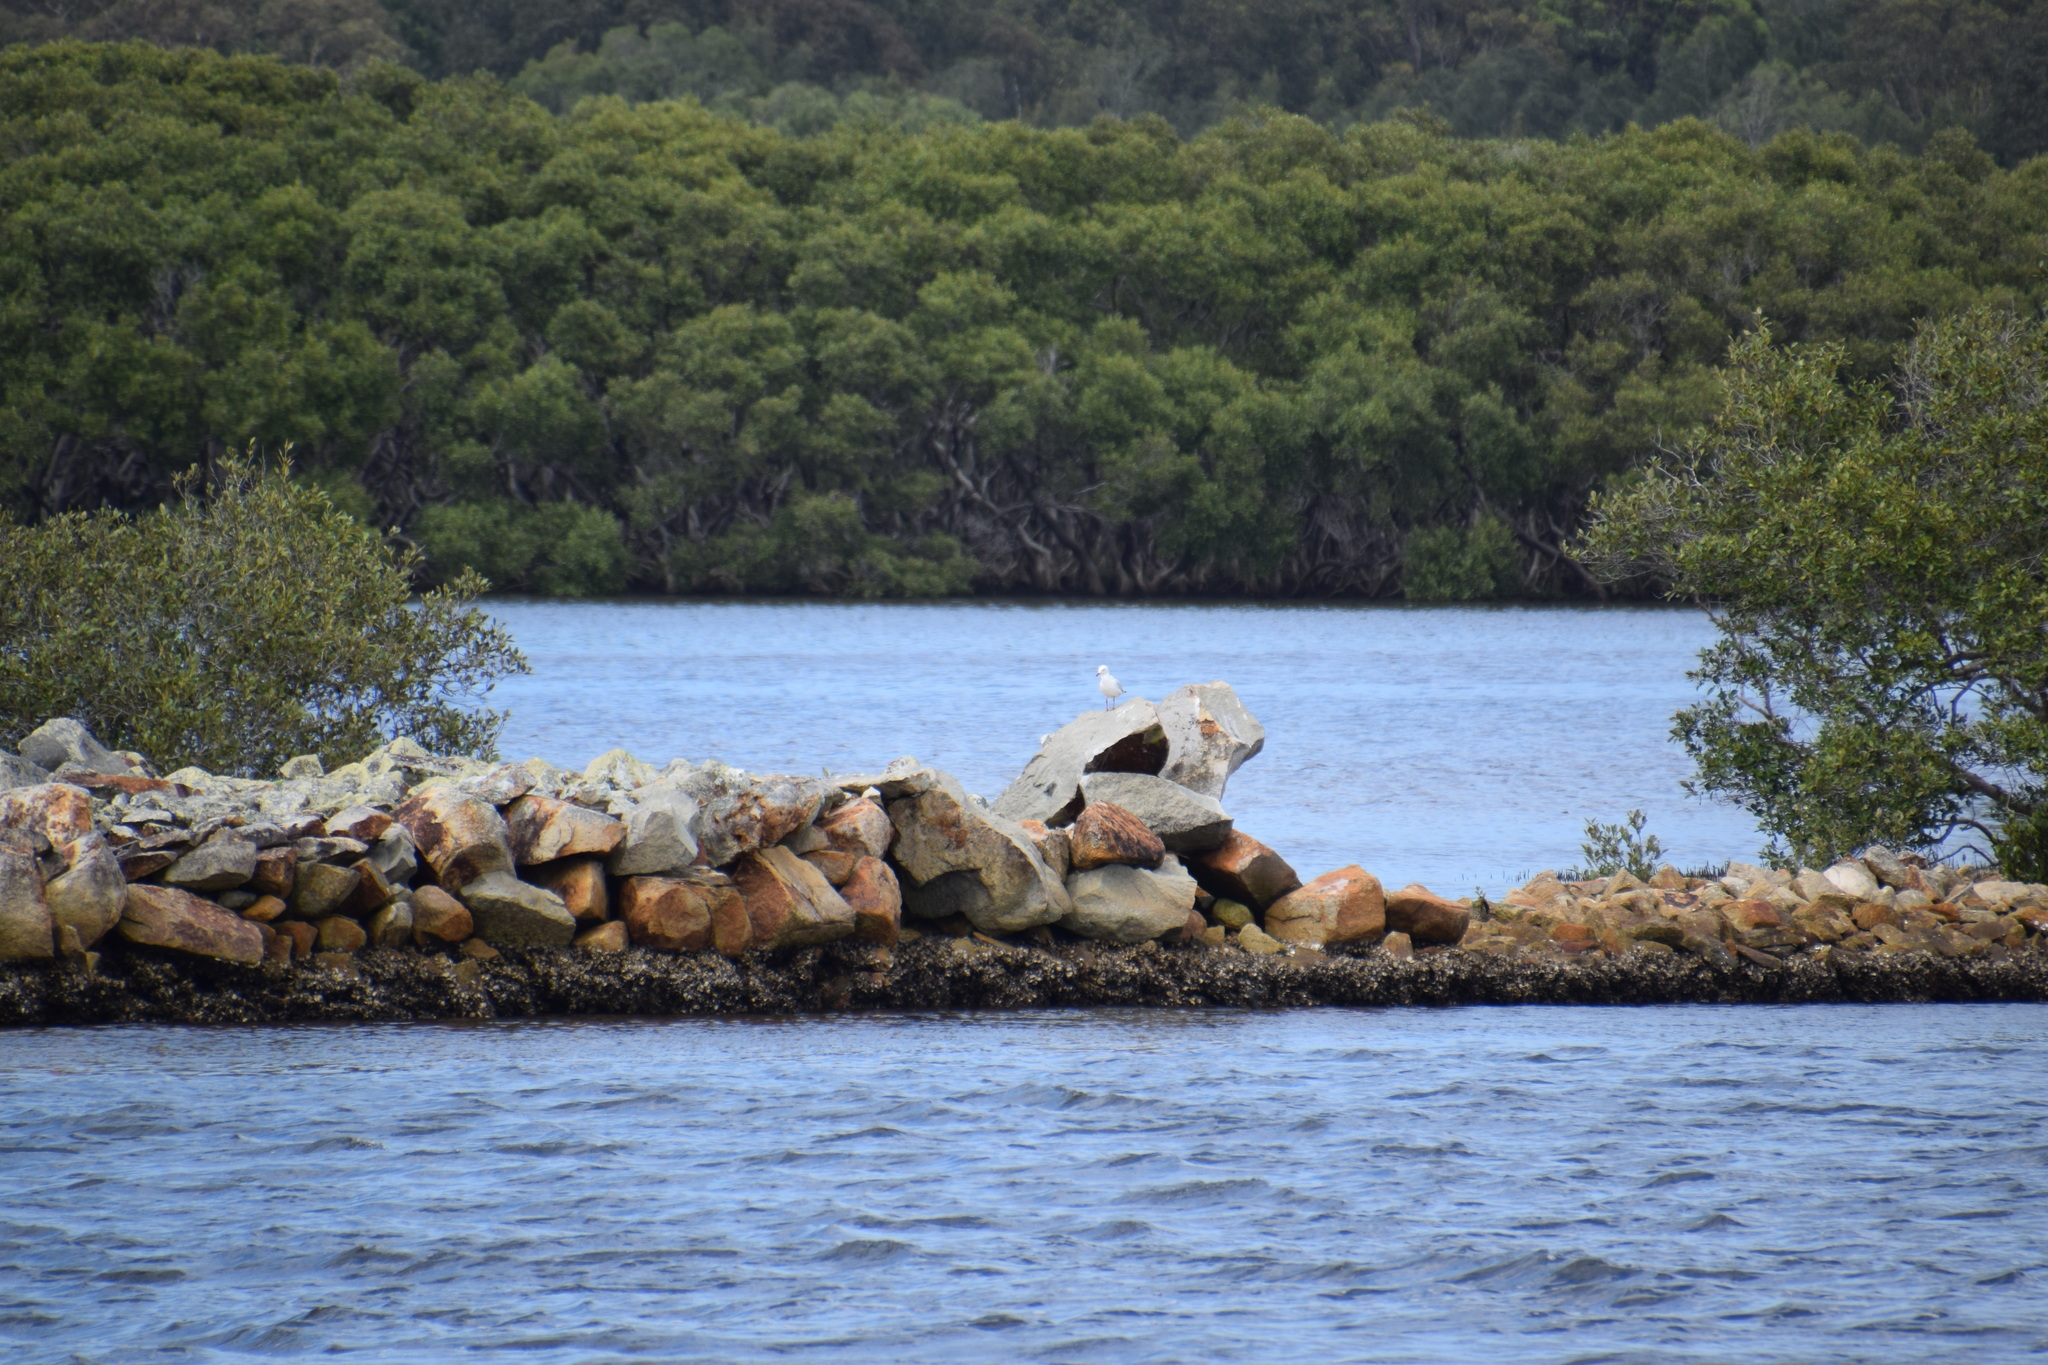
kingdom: Animalia
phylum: Chordata
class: Aves
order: Charadriiformes
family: Laridae
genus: Chroicocephalus
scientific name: Chroicocephalus novaehollandiae
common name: Silver gull
